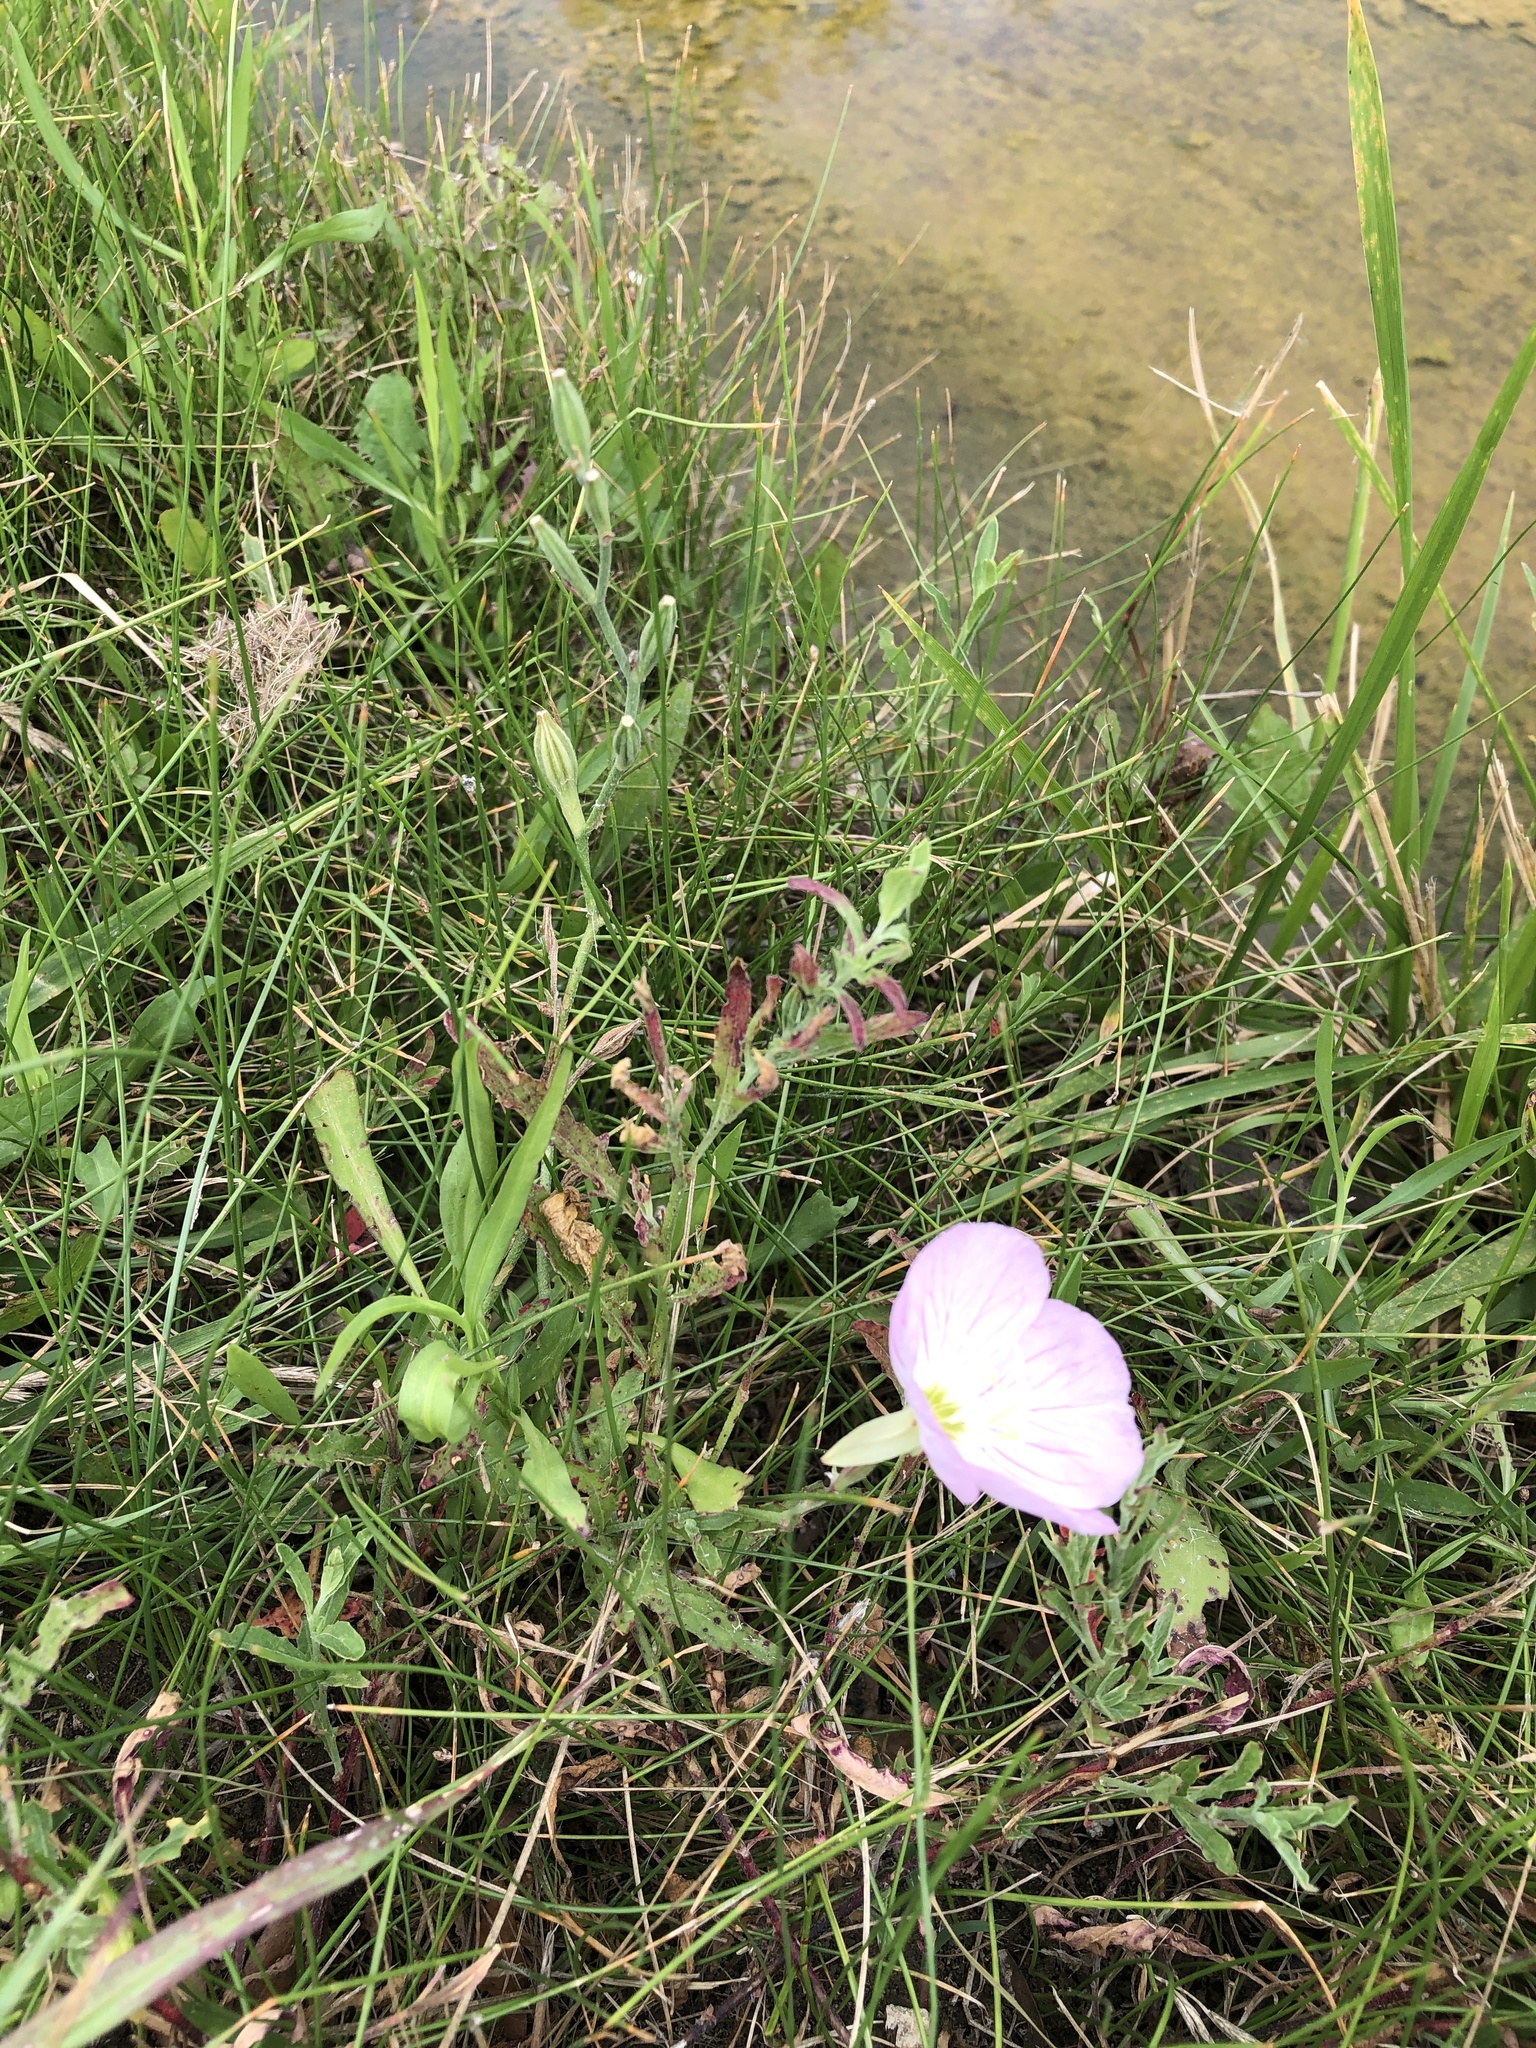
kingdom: Plantae
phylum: Tracheophyta
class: Magnoliopsida
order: Myrtales
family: Onagraceae
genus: Oenothera
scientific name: Oenothera speciosa
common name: White evening-primrose
